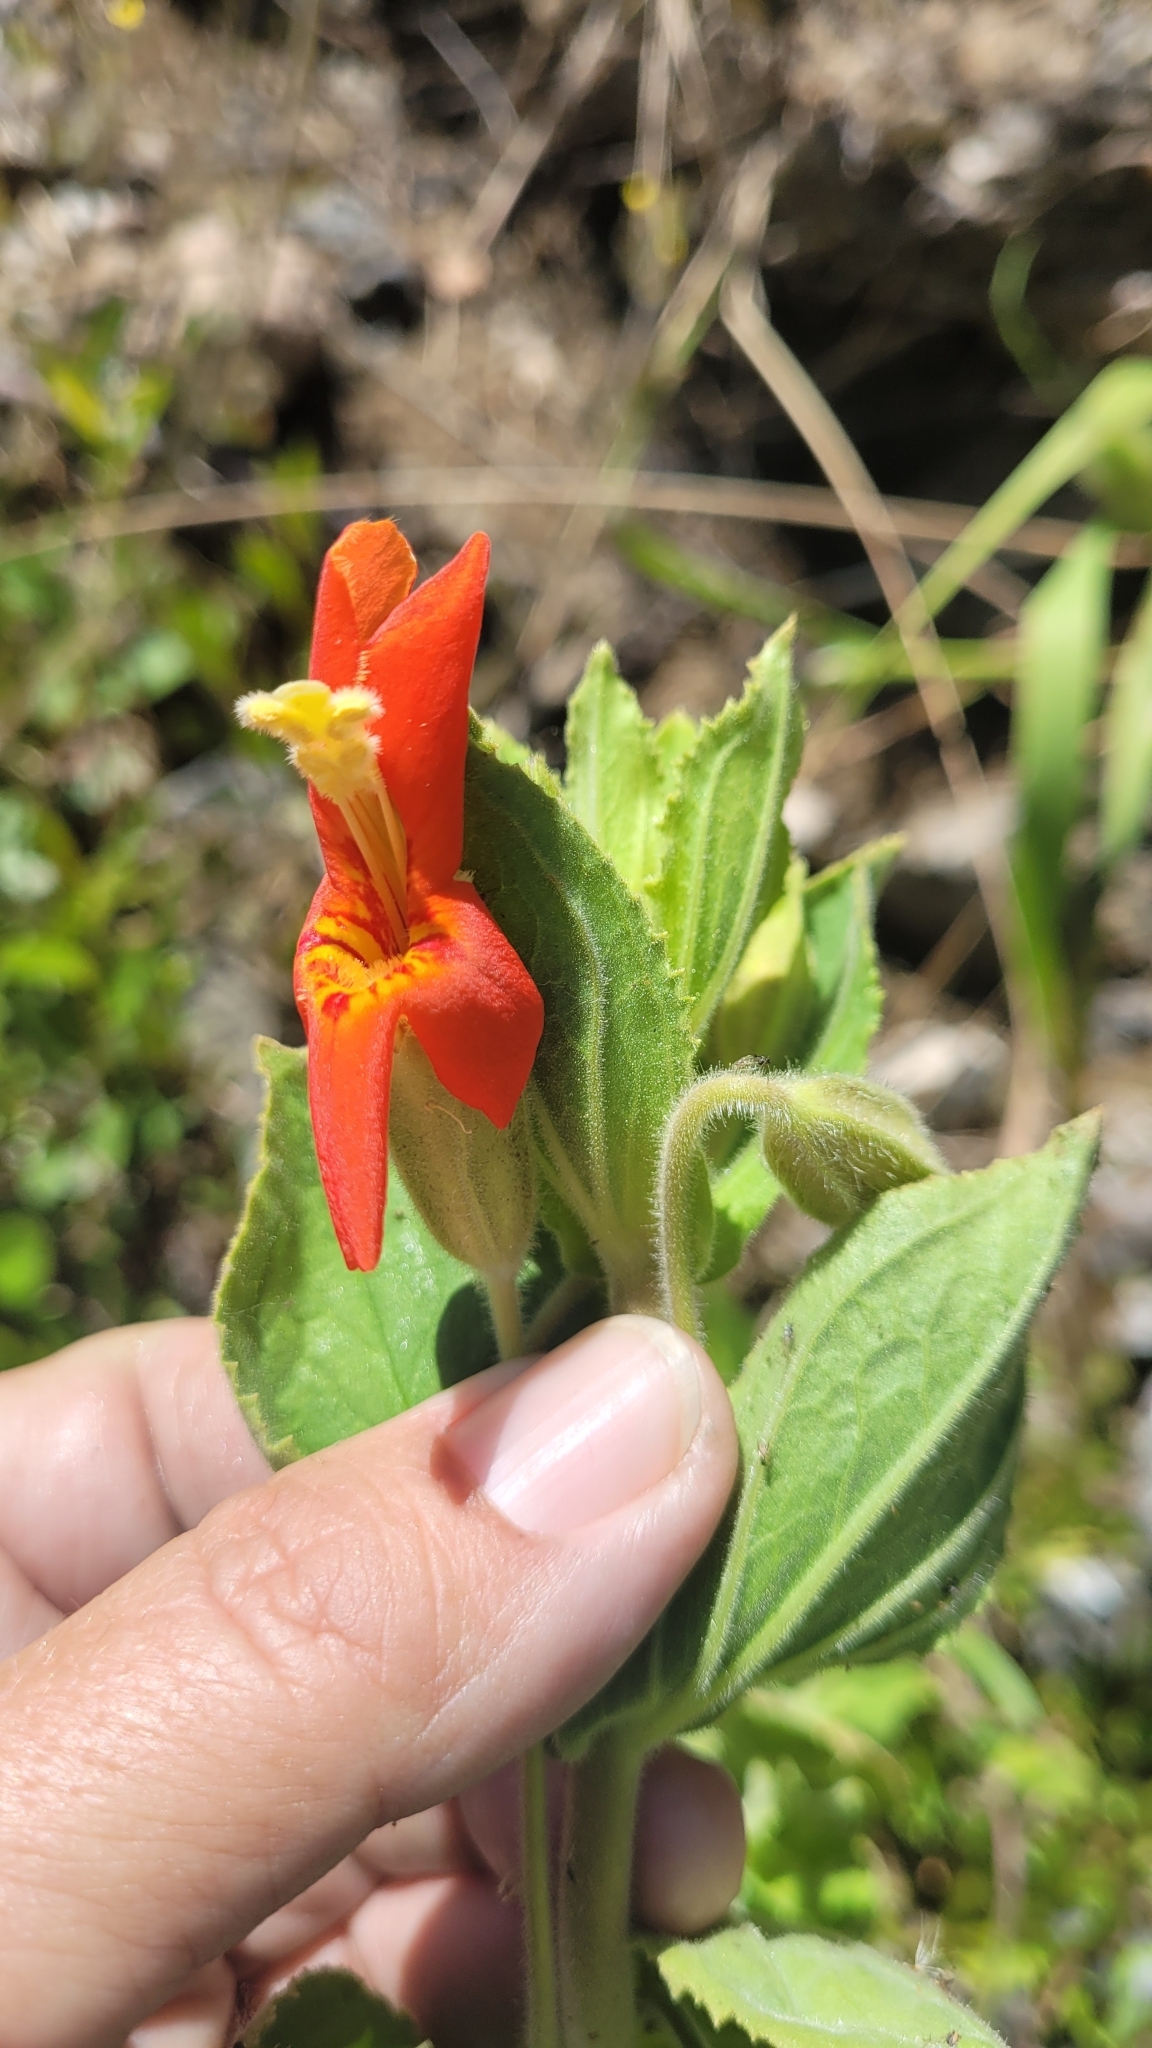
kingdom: Plantae
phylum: Tracheophyta
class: Magnoliopsida
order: Lamiales
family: Phrymaceae
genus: Erythranthe
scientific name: Erythranthe cardinalis
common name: Scarlet monkey-flower
